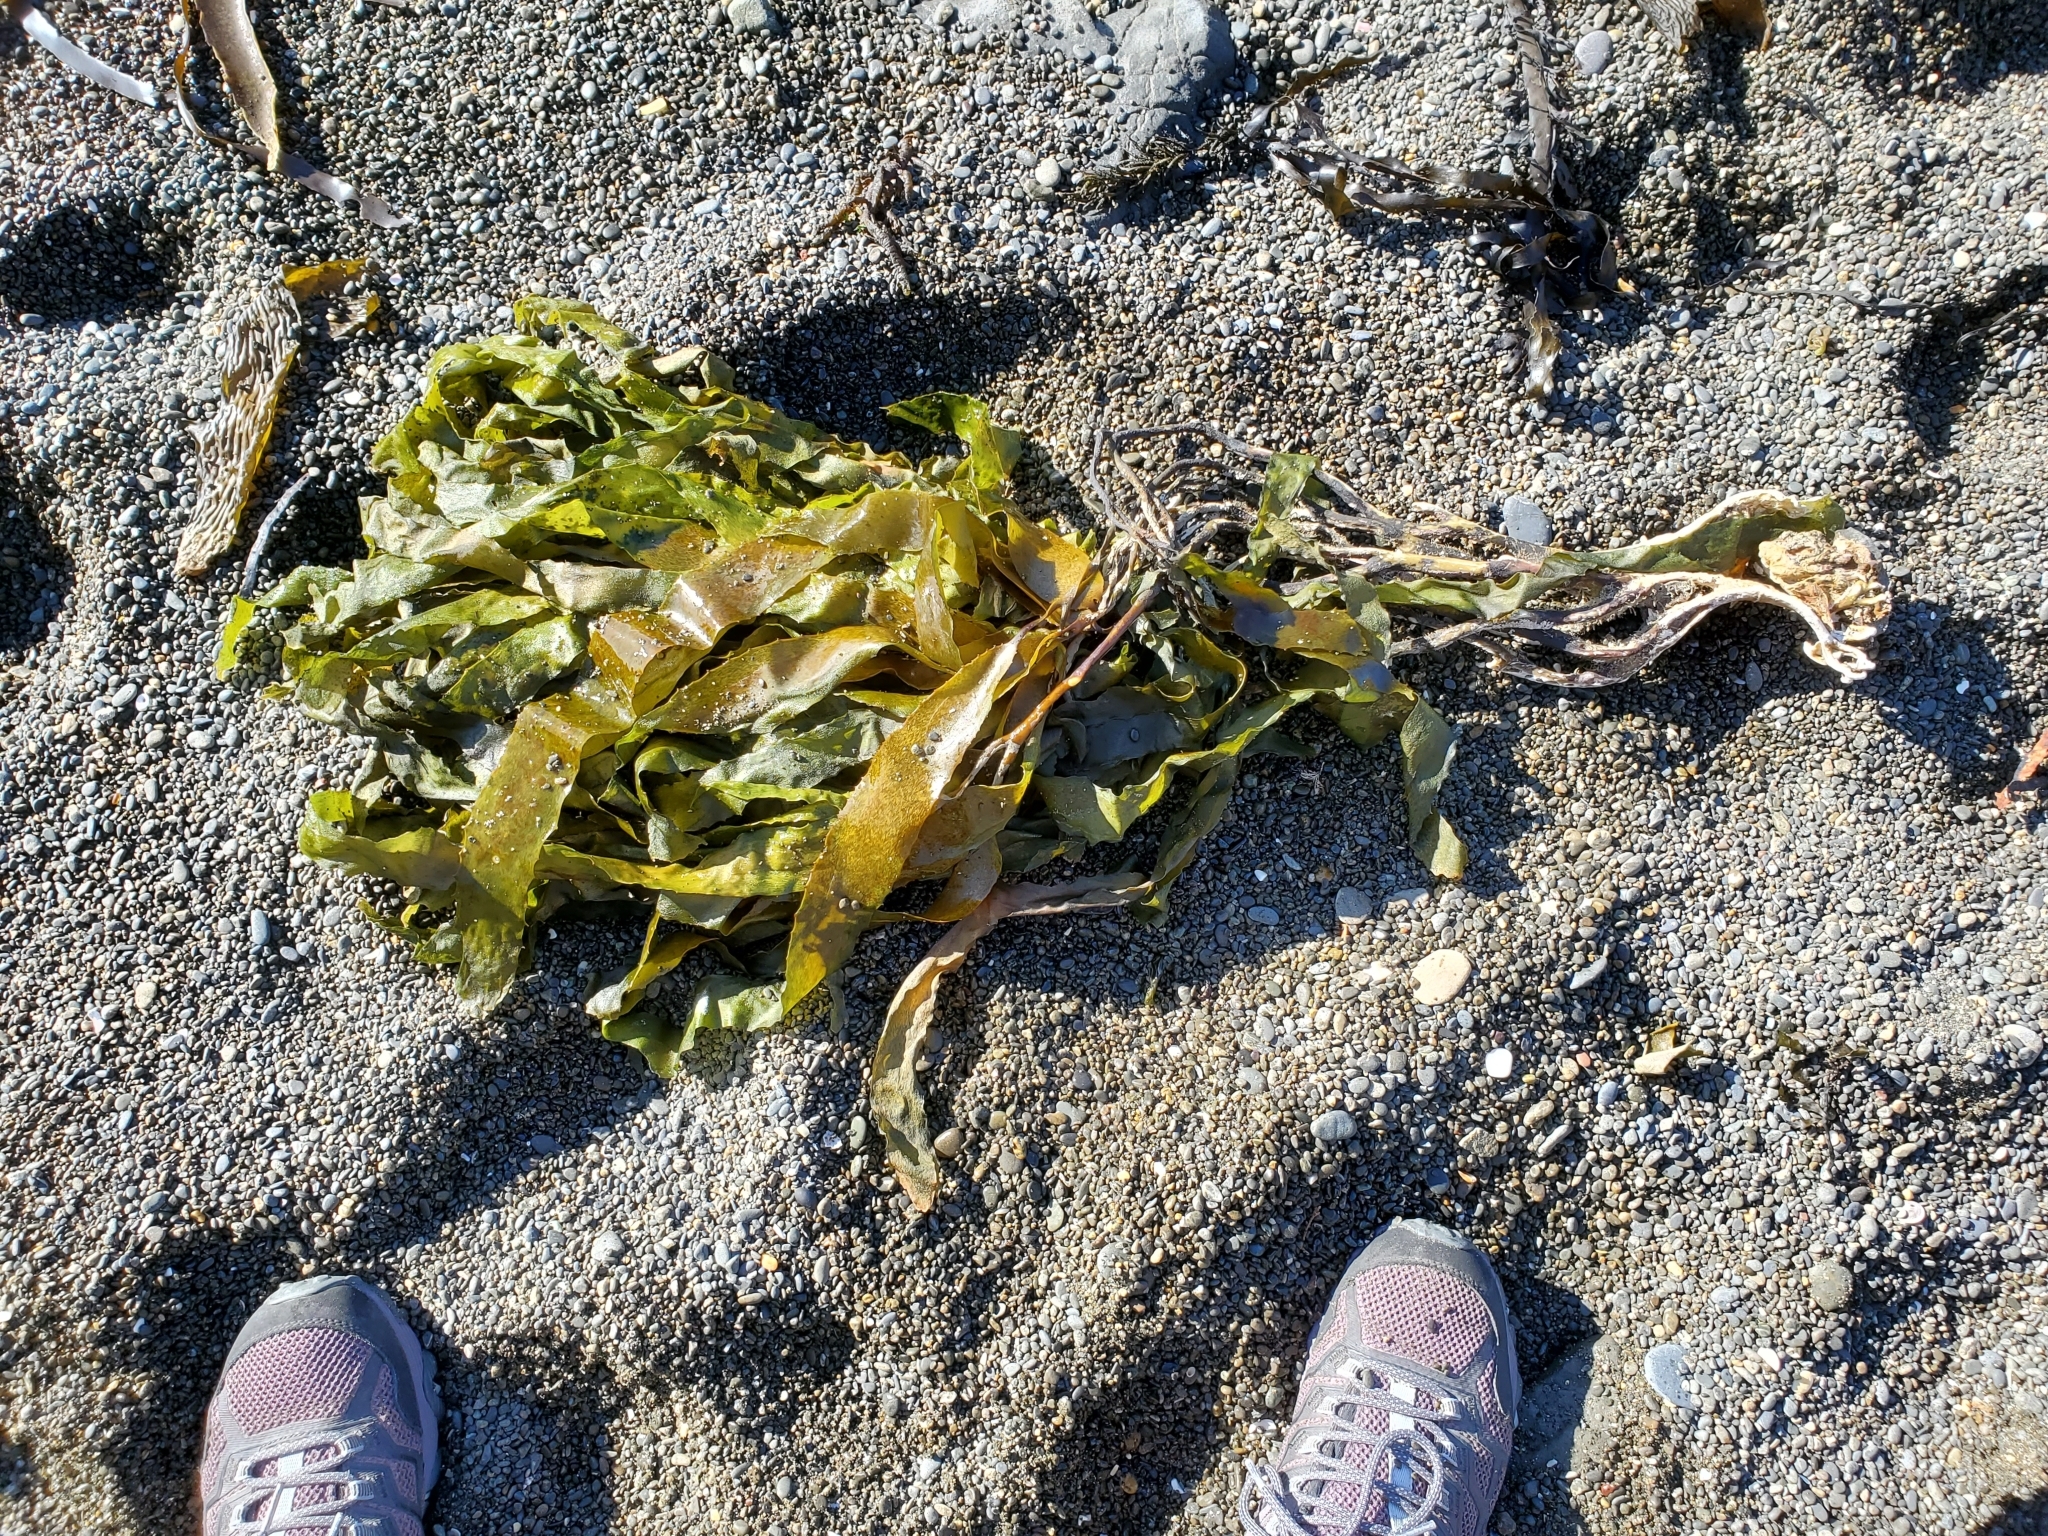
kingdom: Chromista
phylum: Ochrophyta
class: Phaeophyceae
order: Laminariales
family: Lessoniaceae
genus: Lessonia
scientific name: Lessonia variegata
